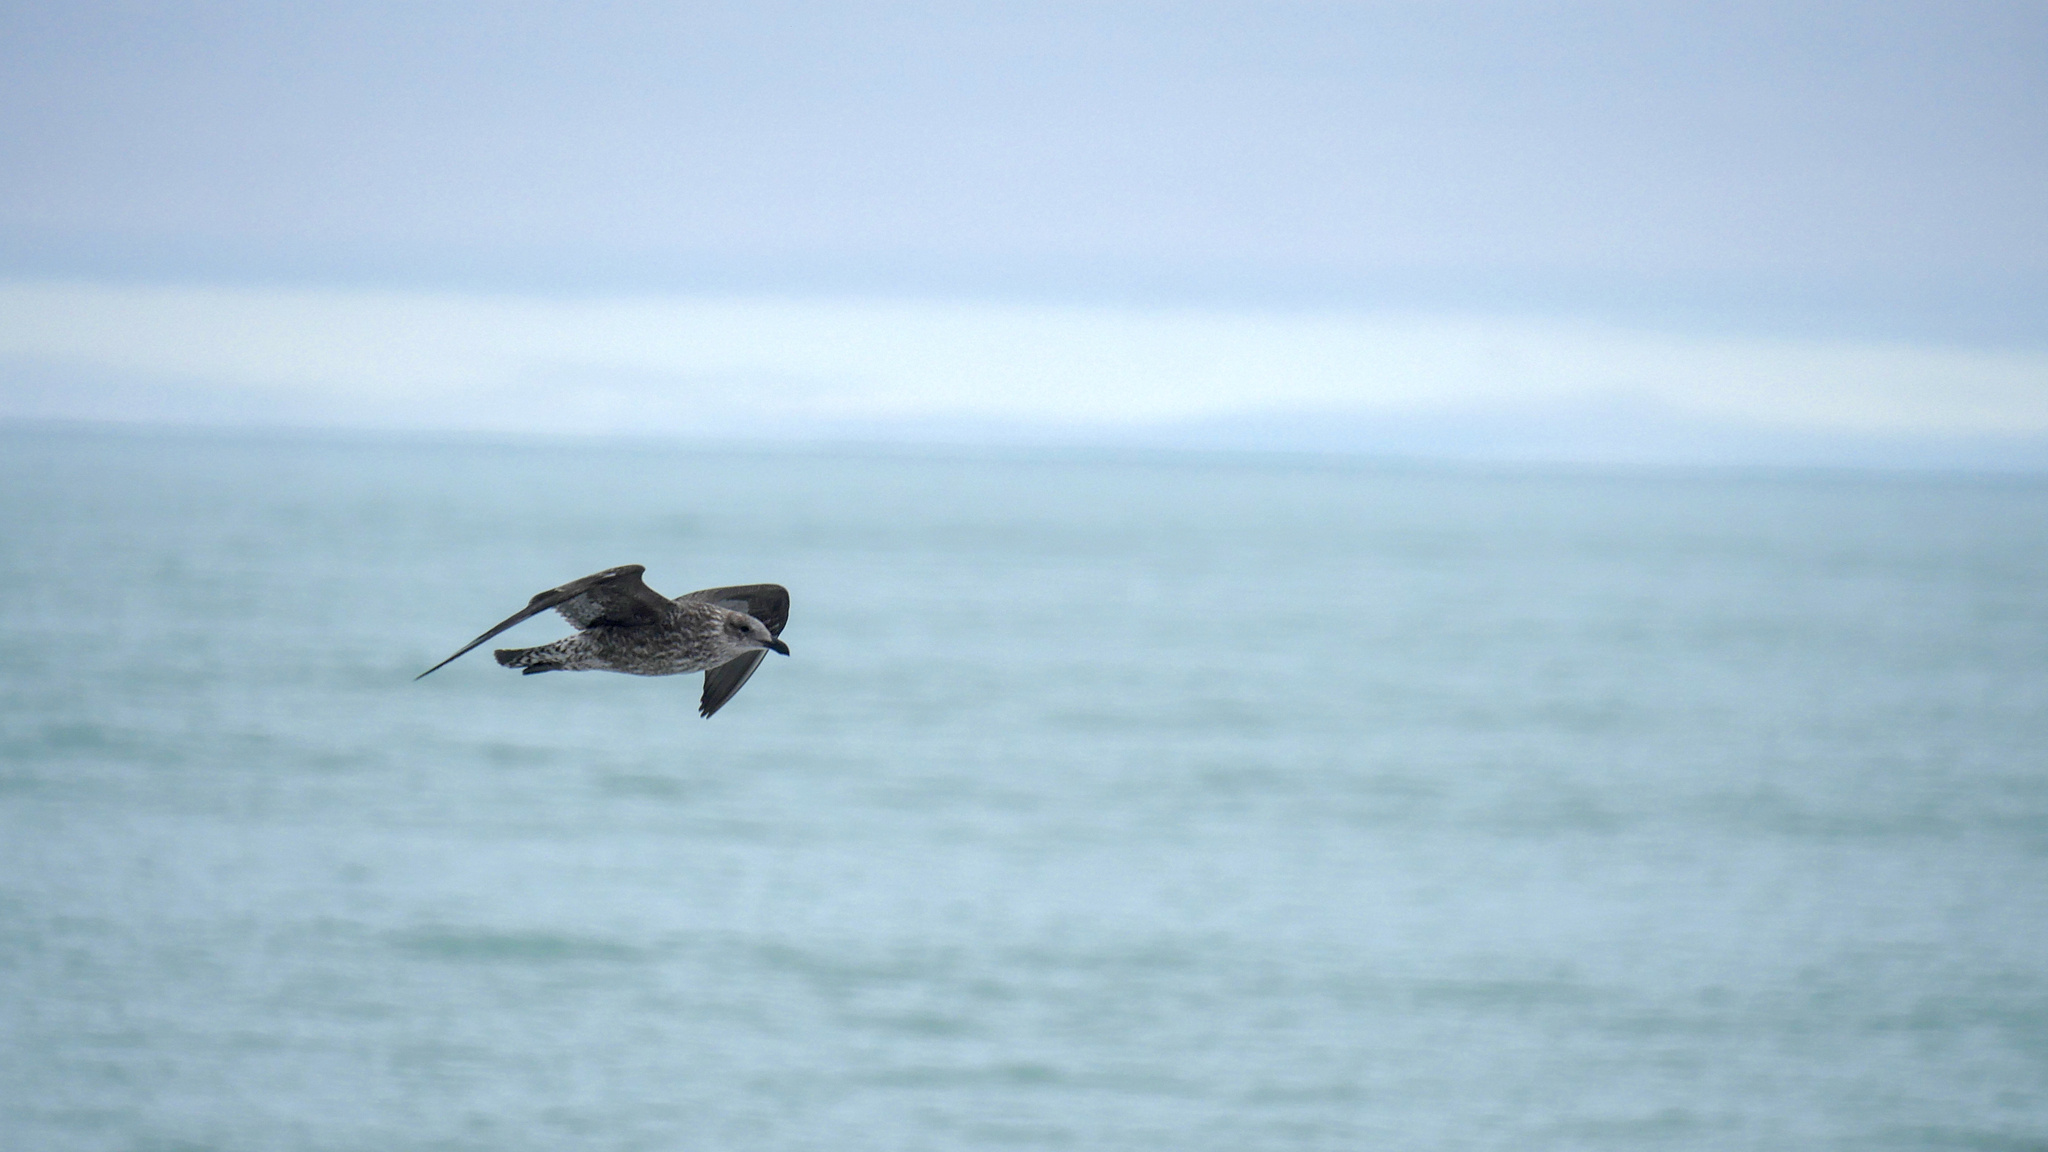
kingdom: Animalia
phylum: Chordata
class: Aves
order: Charadriiformes
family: Laridae
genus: Larus
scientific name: Larus dominicanus
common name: Kelp gull
